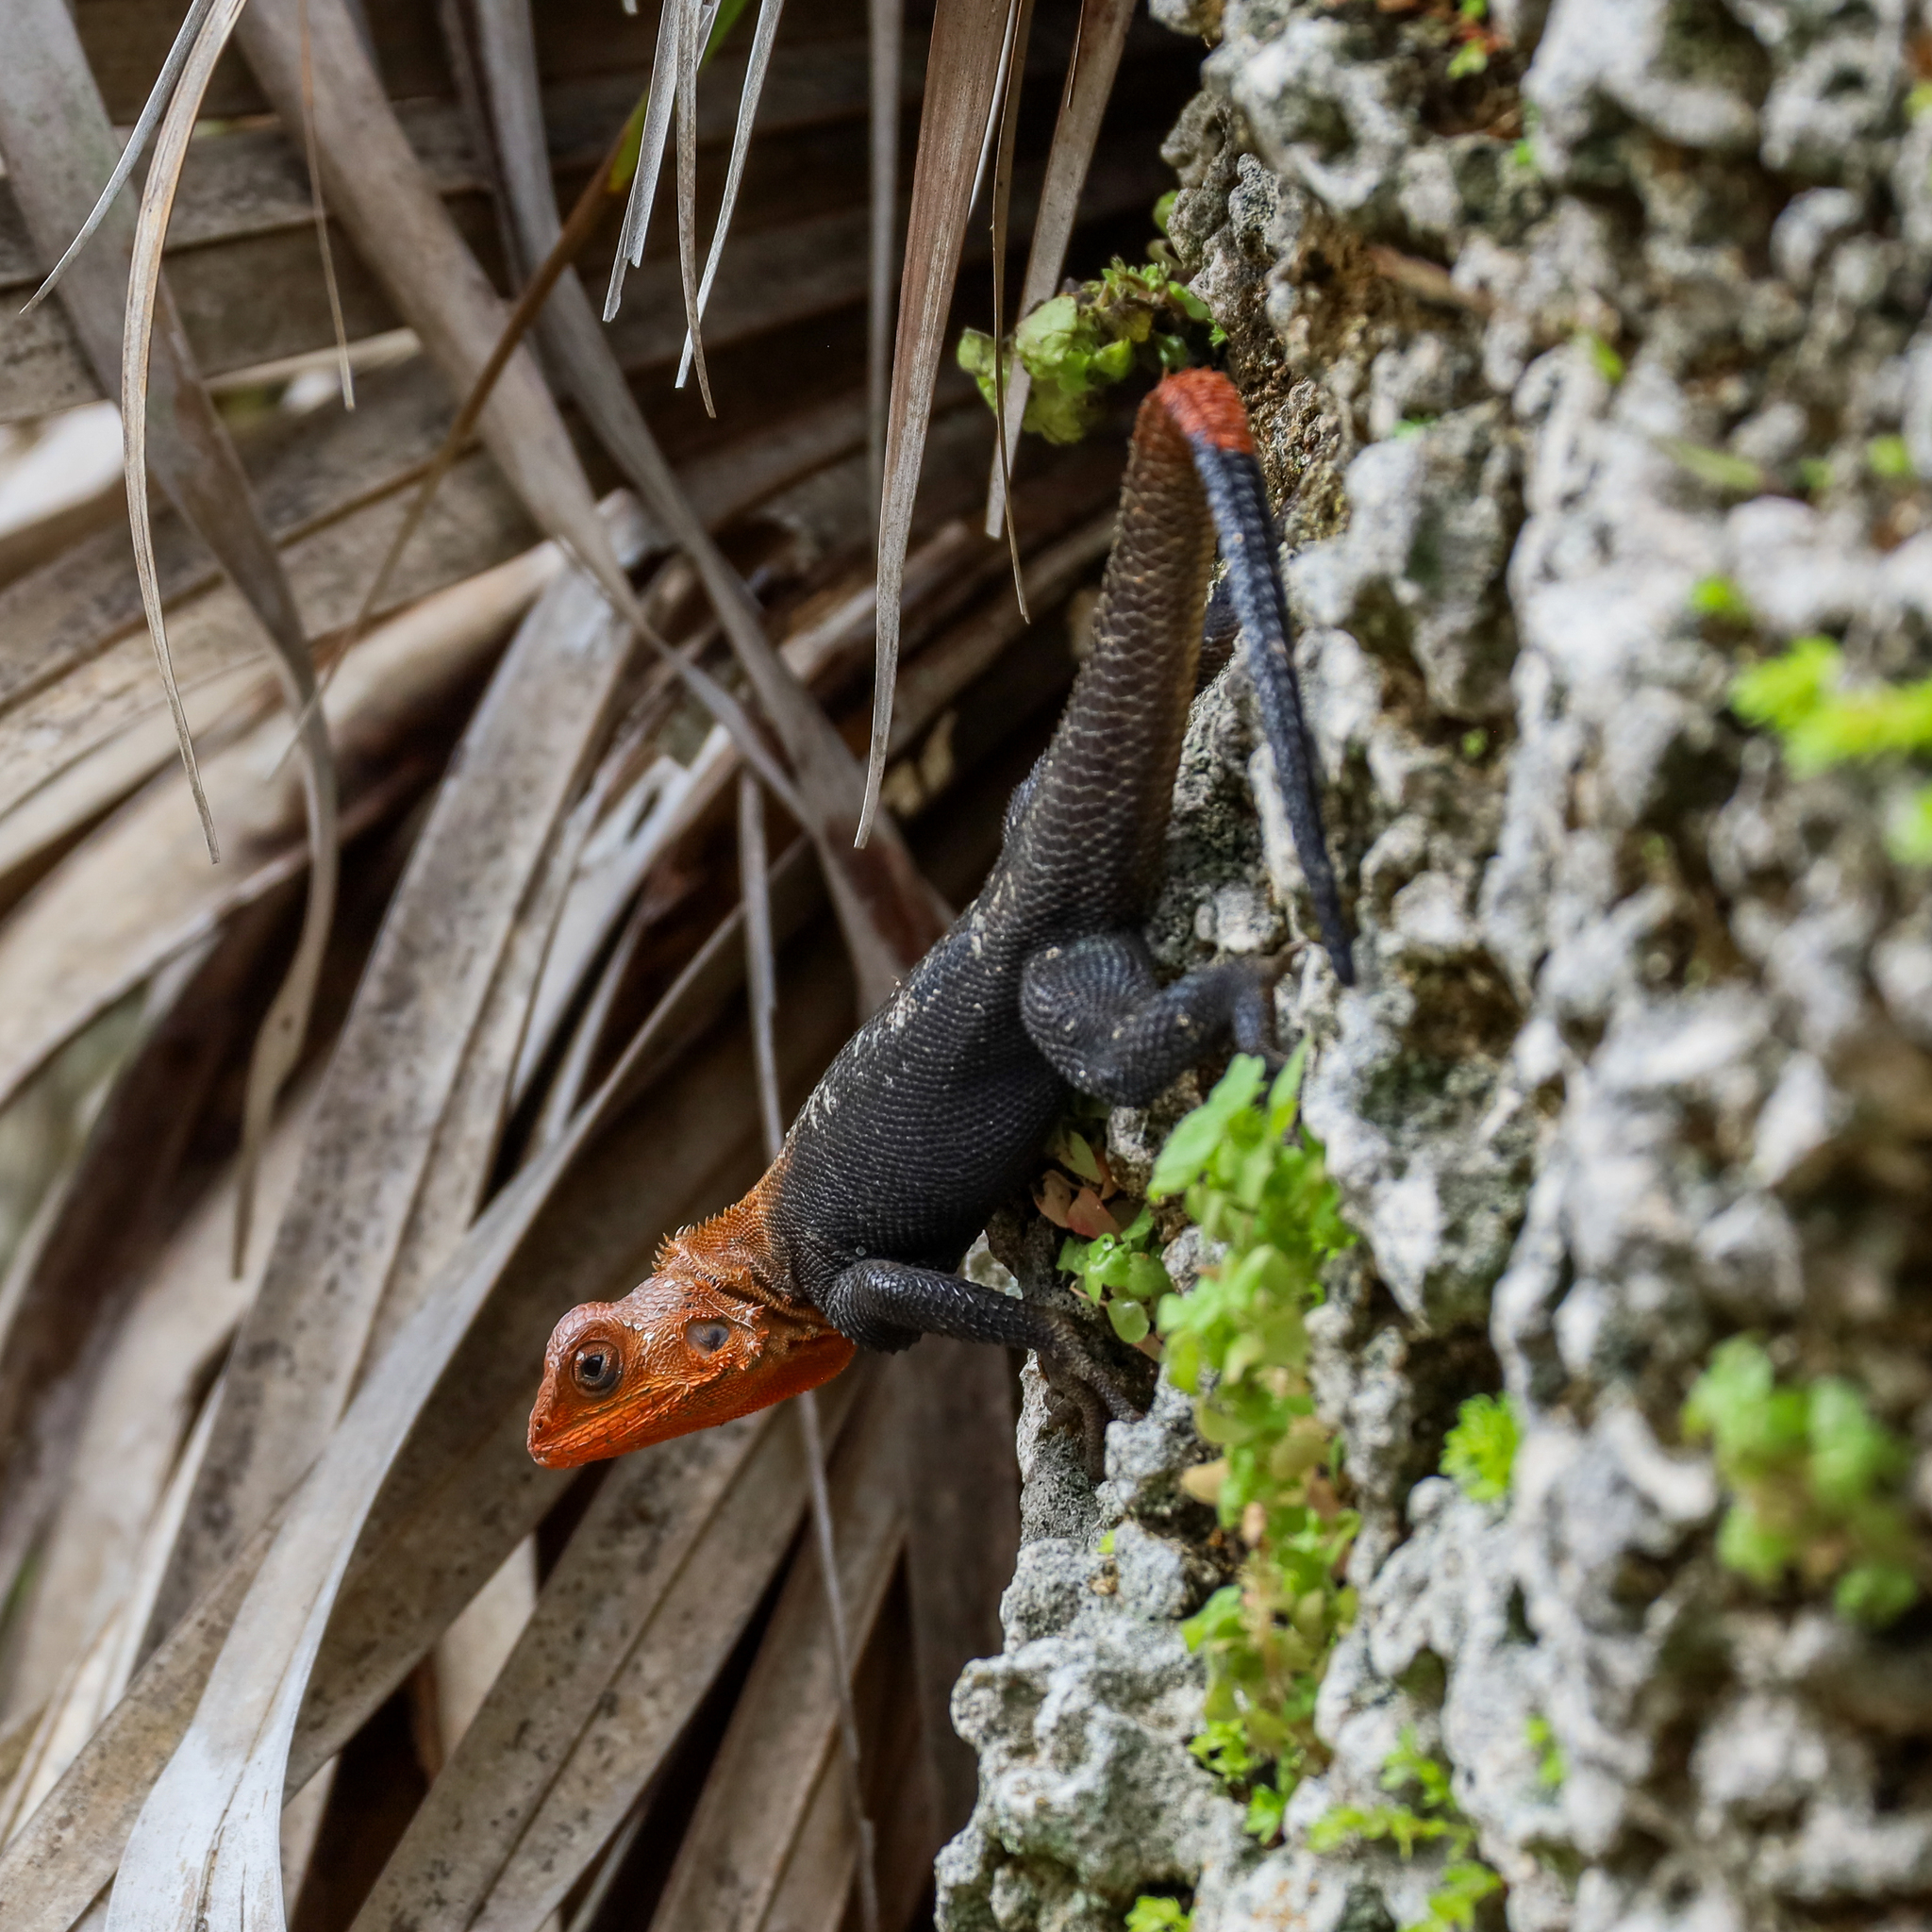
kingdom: Animalia
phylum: Chordata
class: Squamata
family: Agamidae
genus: Agama
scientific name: Agama picticauda
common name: Red-headed agama
